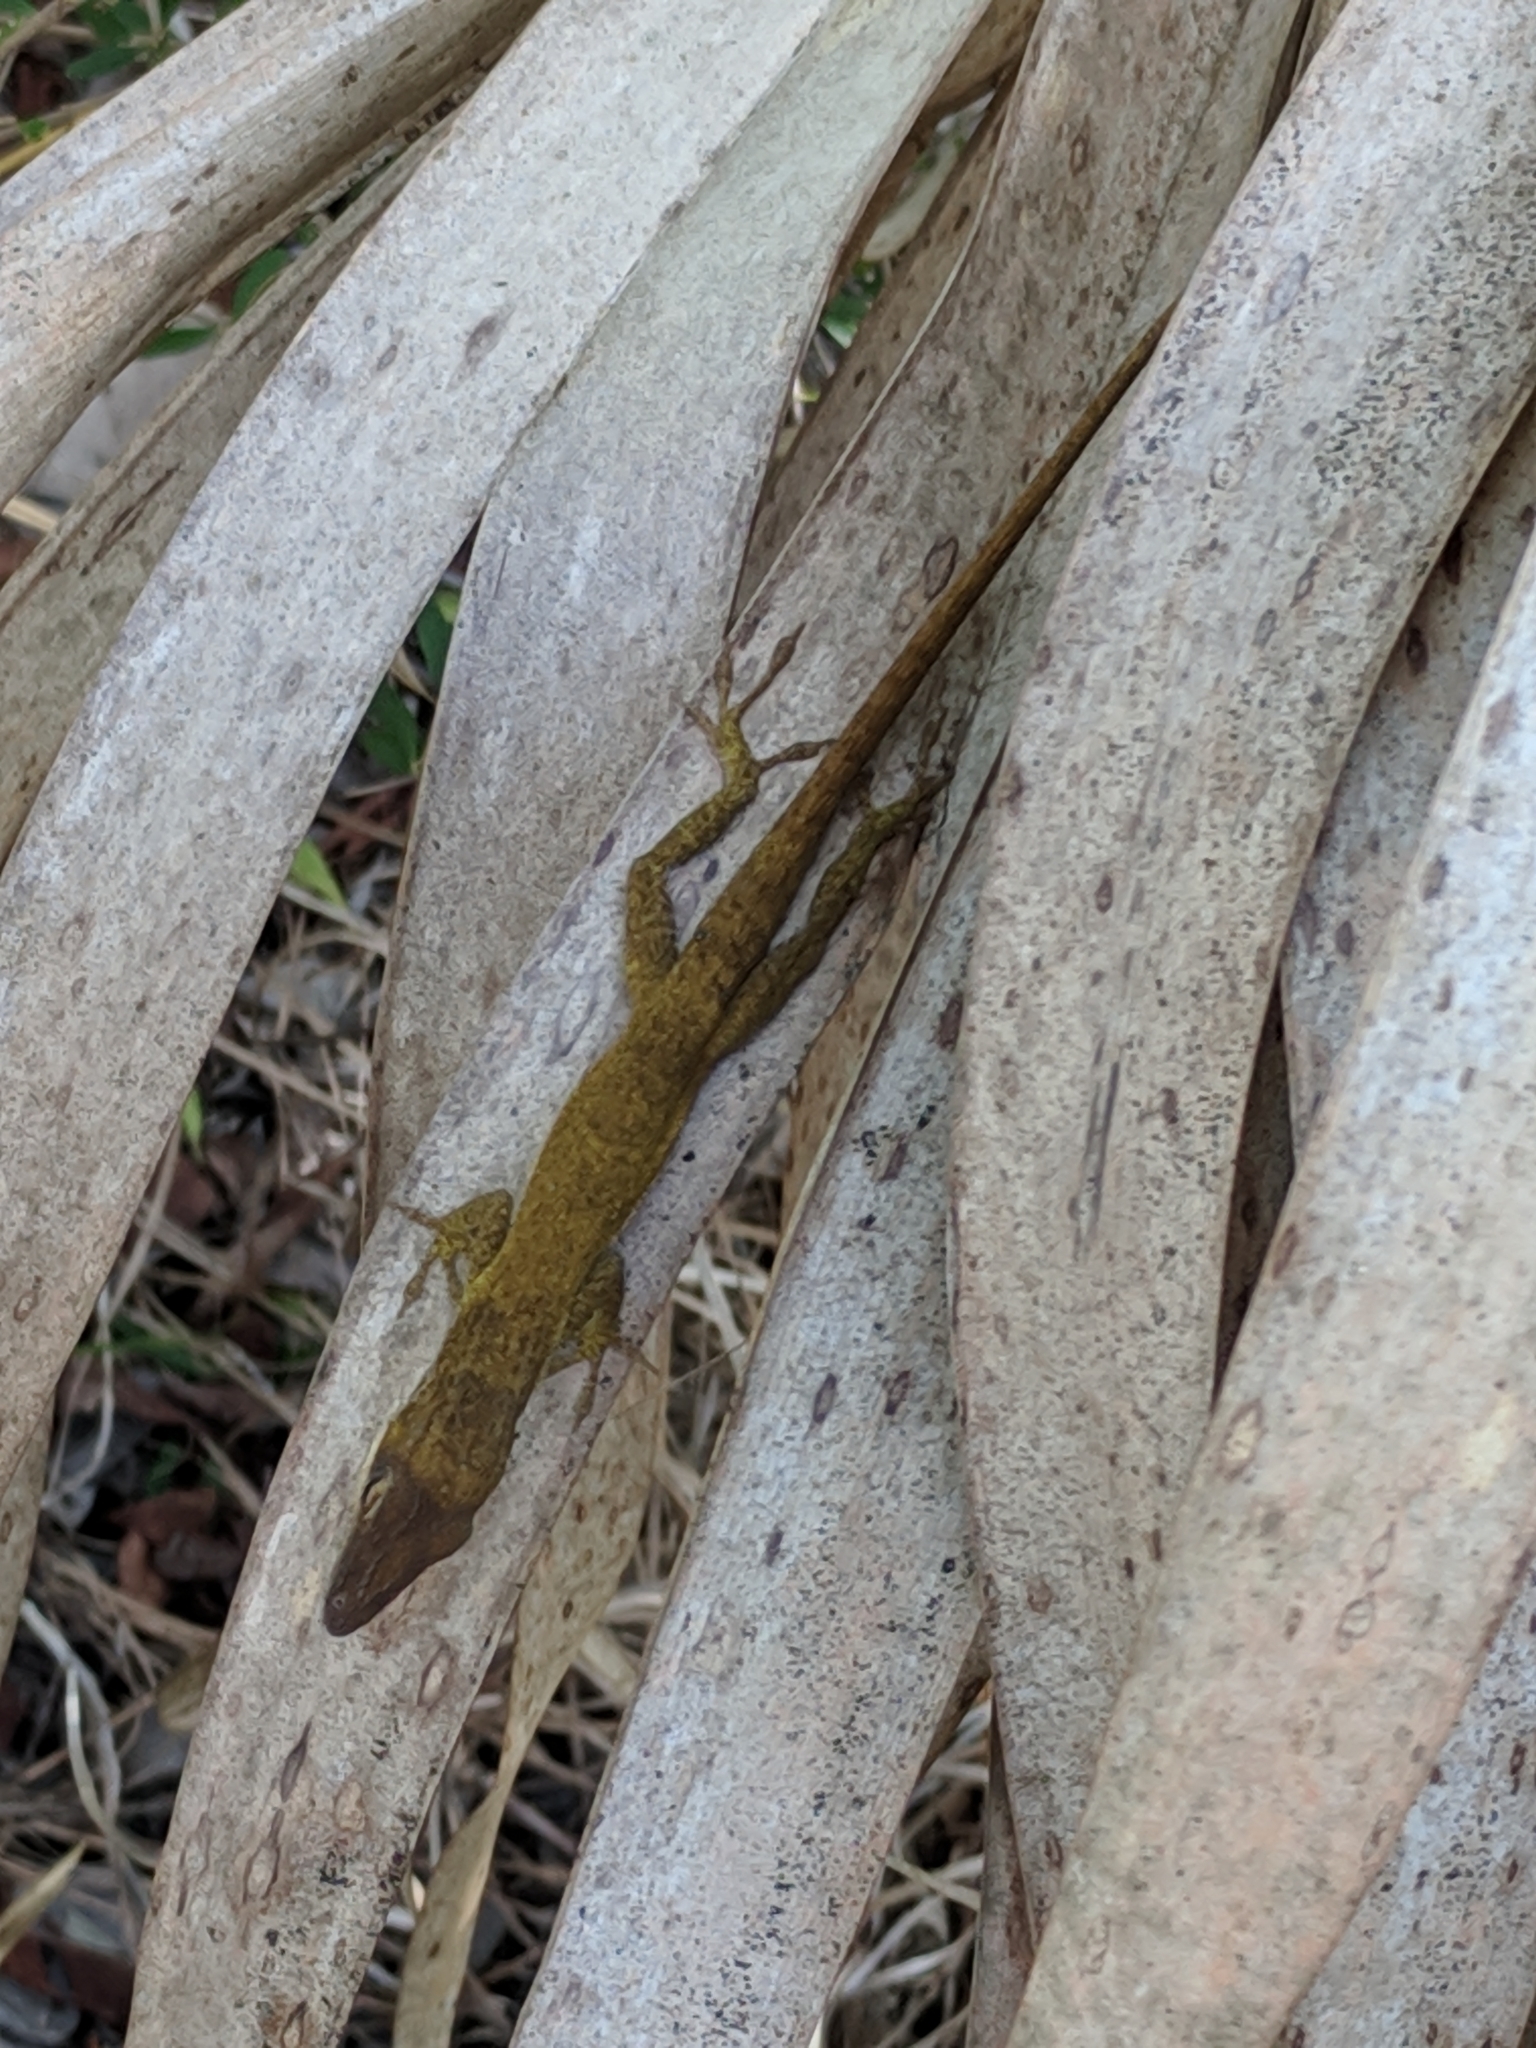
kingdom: Animalia
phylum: Chordata
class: Squamata
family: Dactyloidae
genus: Anolis
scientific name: Anolis carolinensis
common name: Green anole
